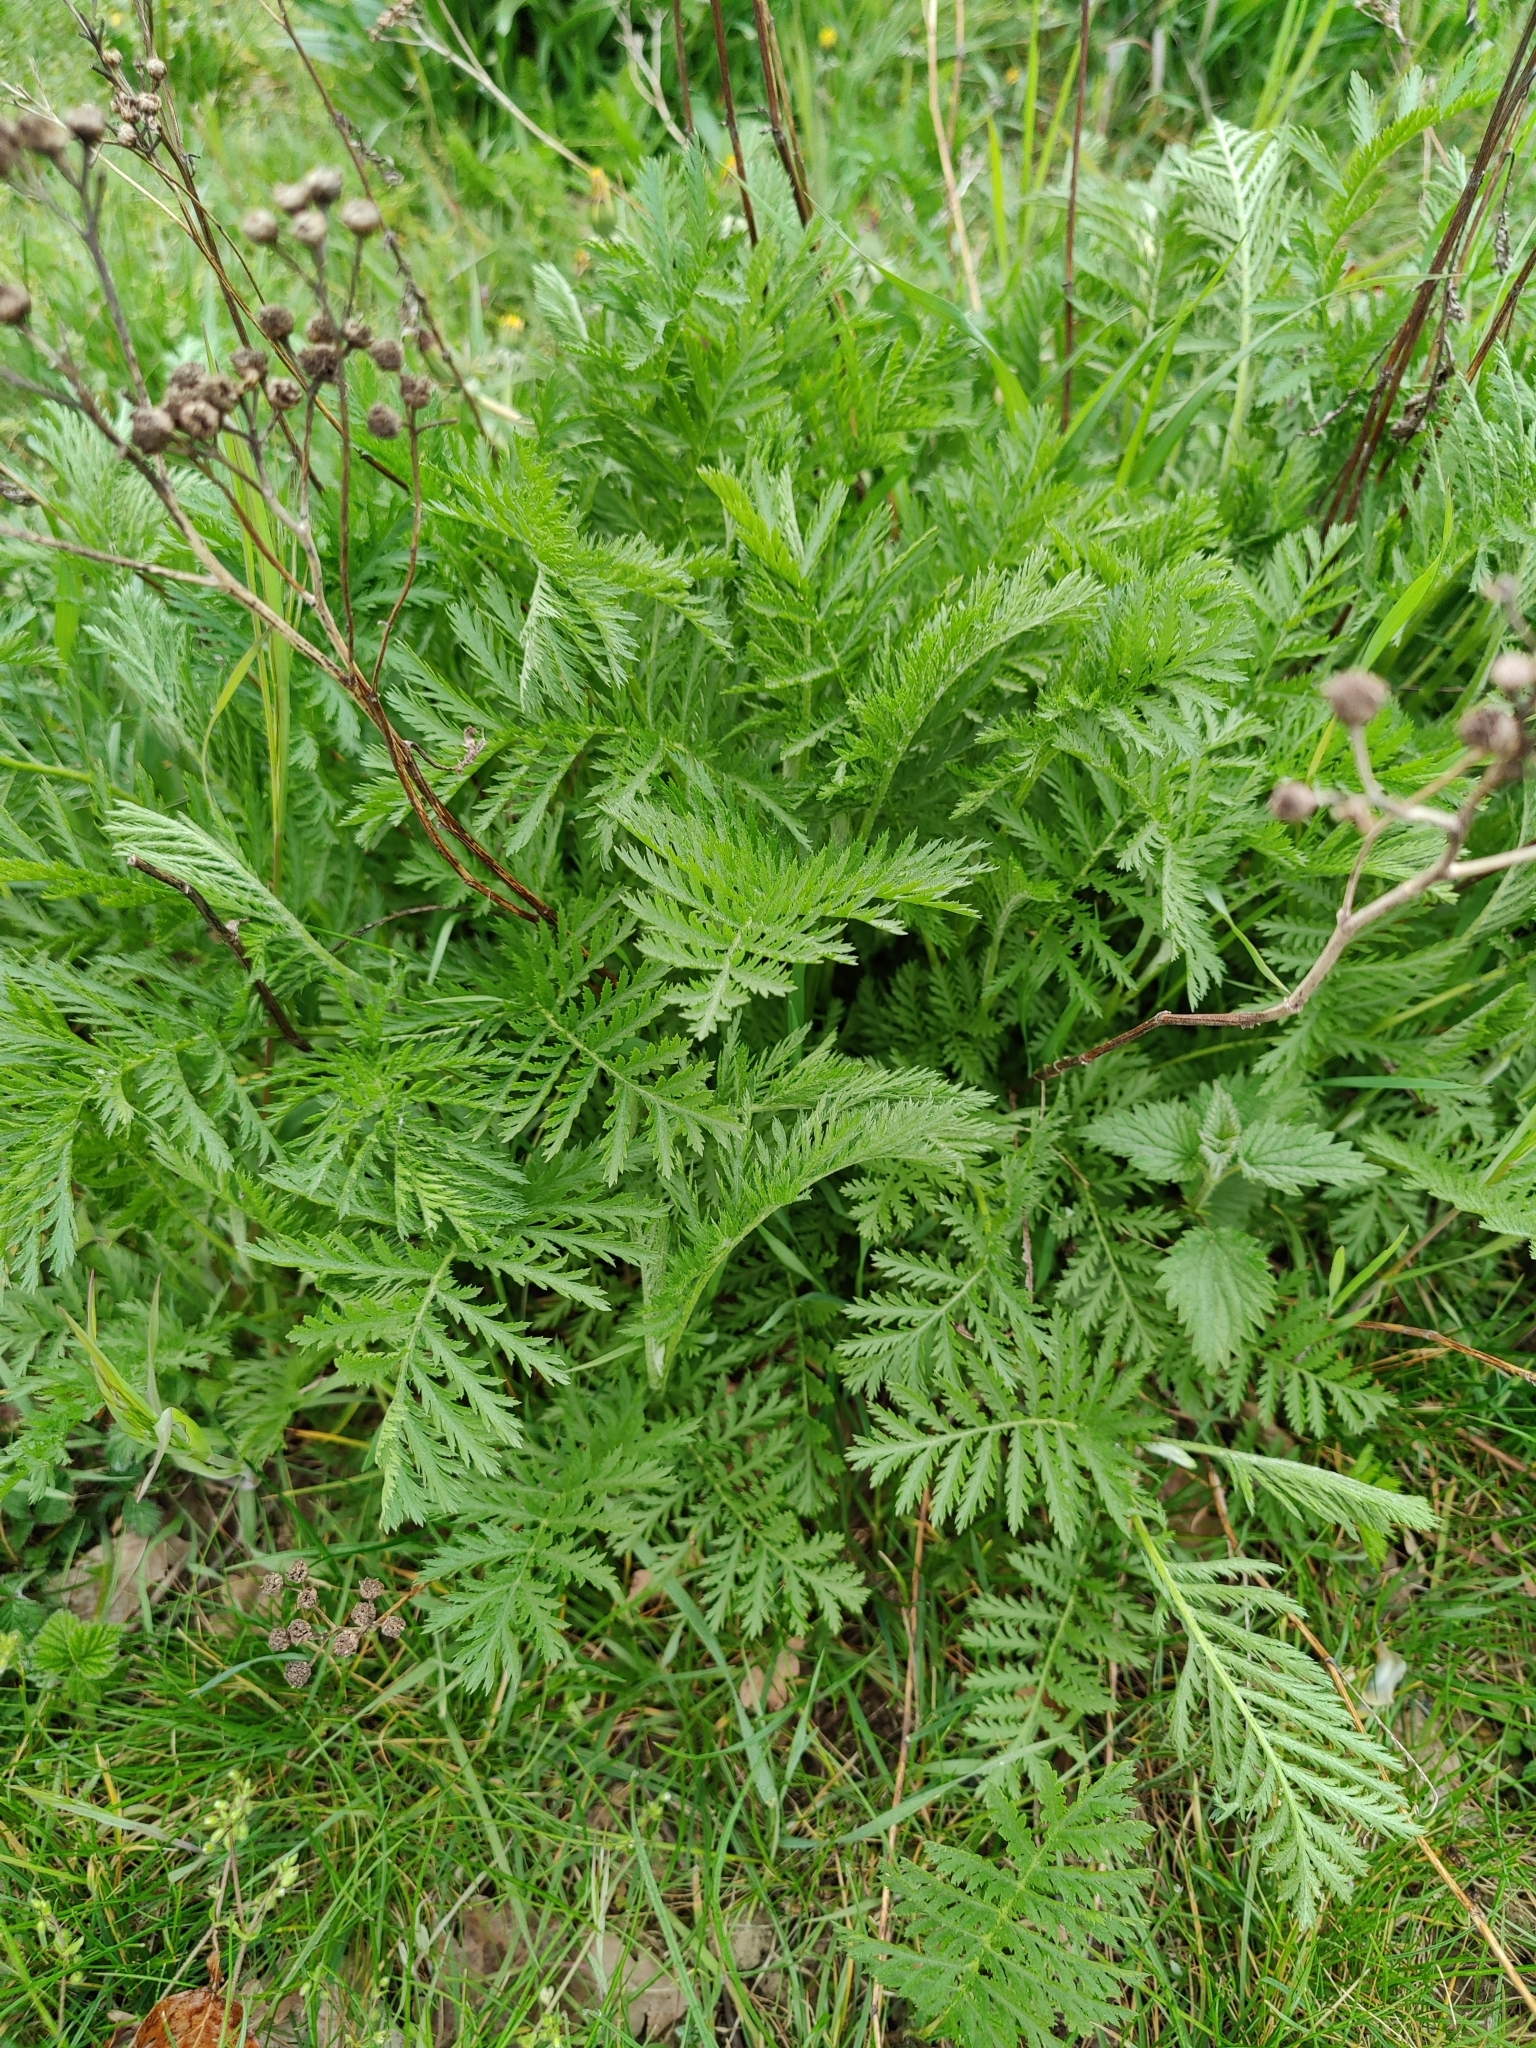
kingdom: Plantae
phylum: Tracheophyta
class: Magnoliopsida
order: Asterales
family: Asteraceae
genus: Tanacetum
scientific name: Tanacetum vulgare
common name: Common tansy
